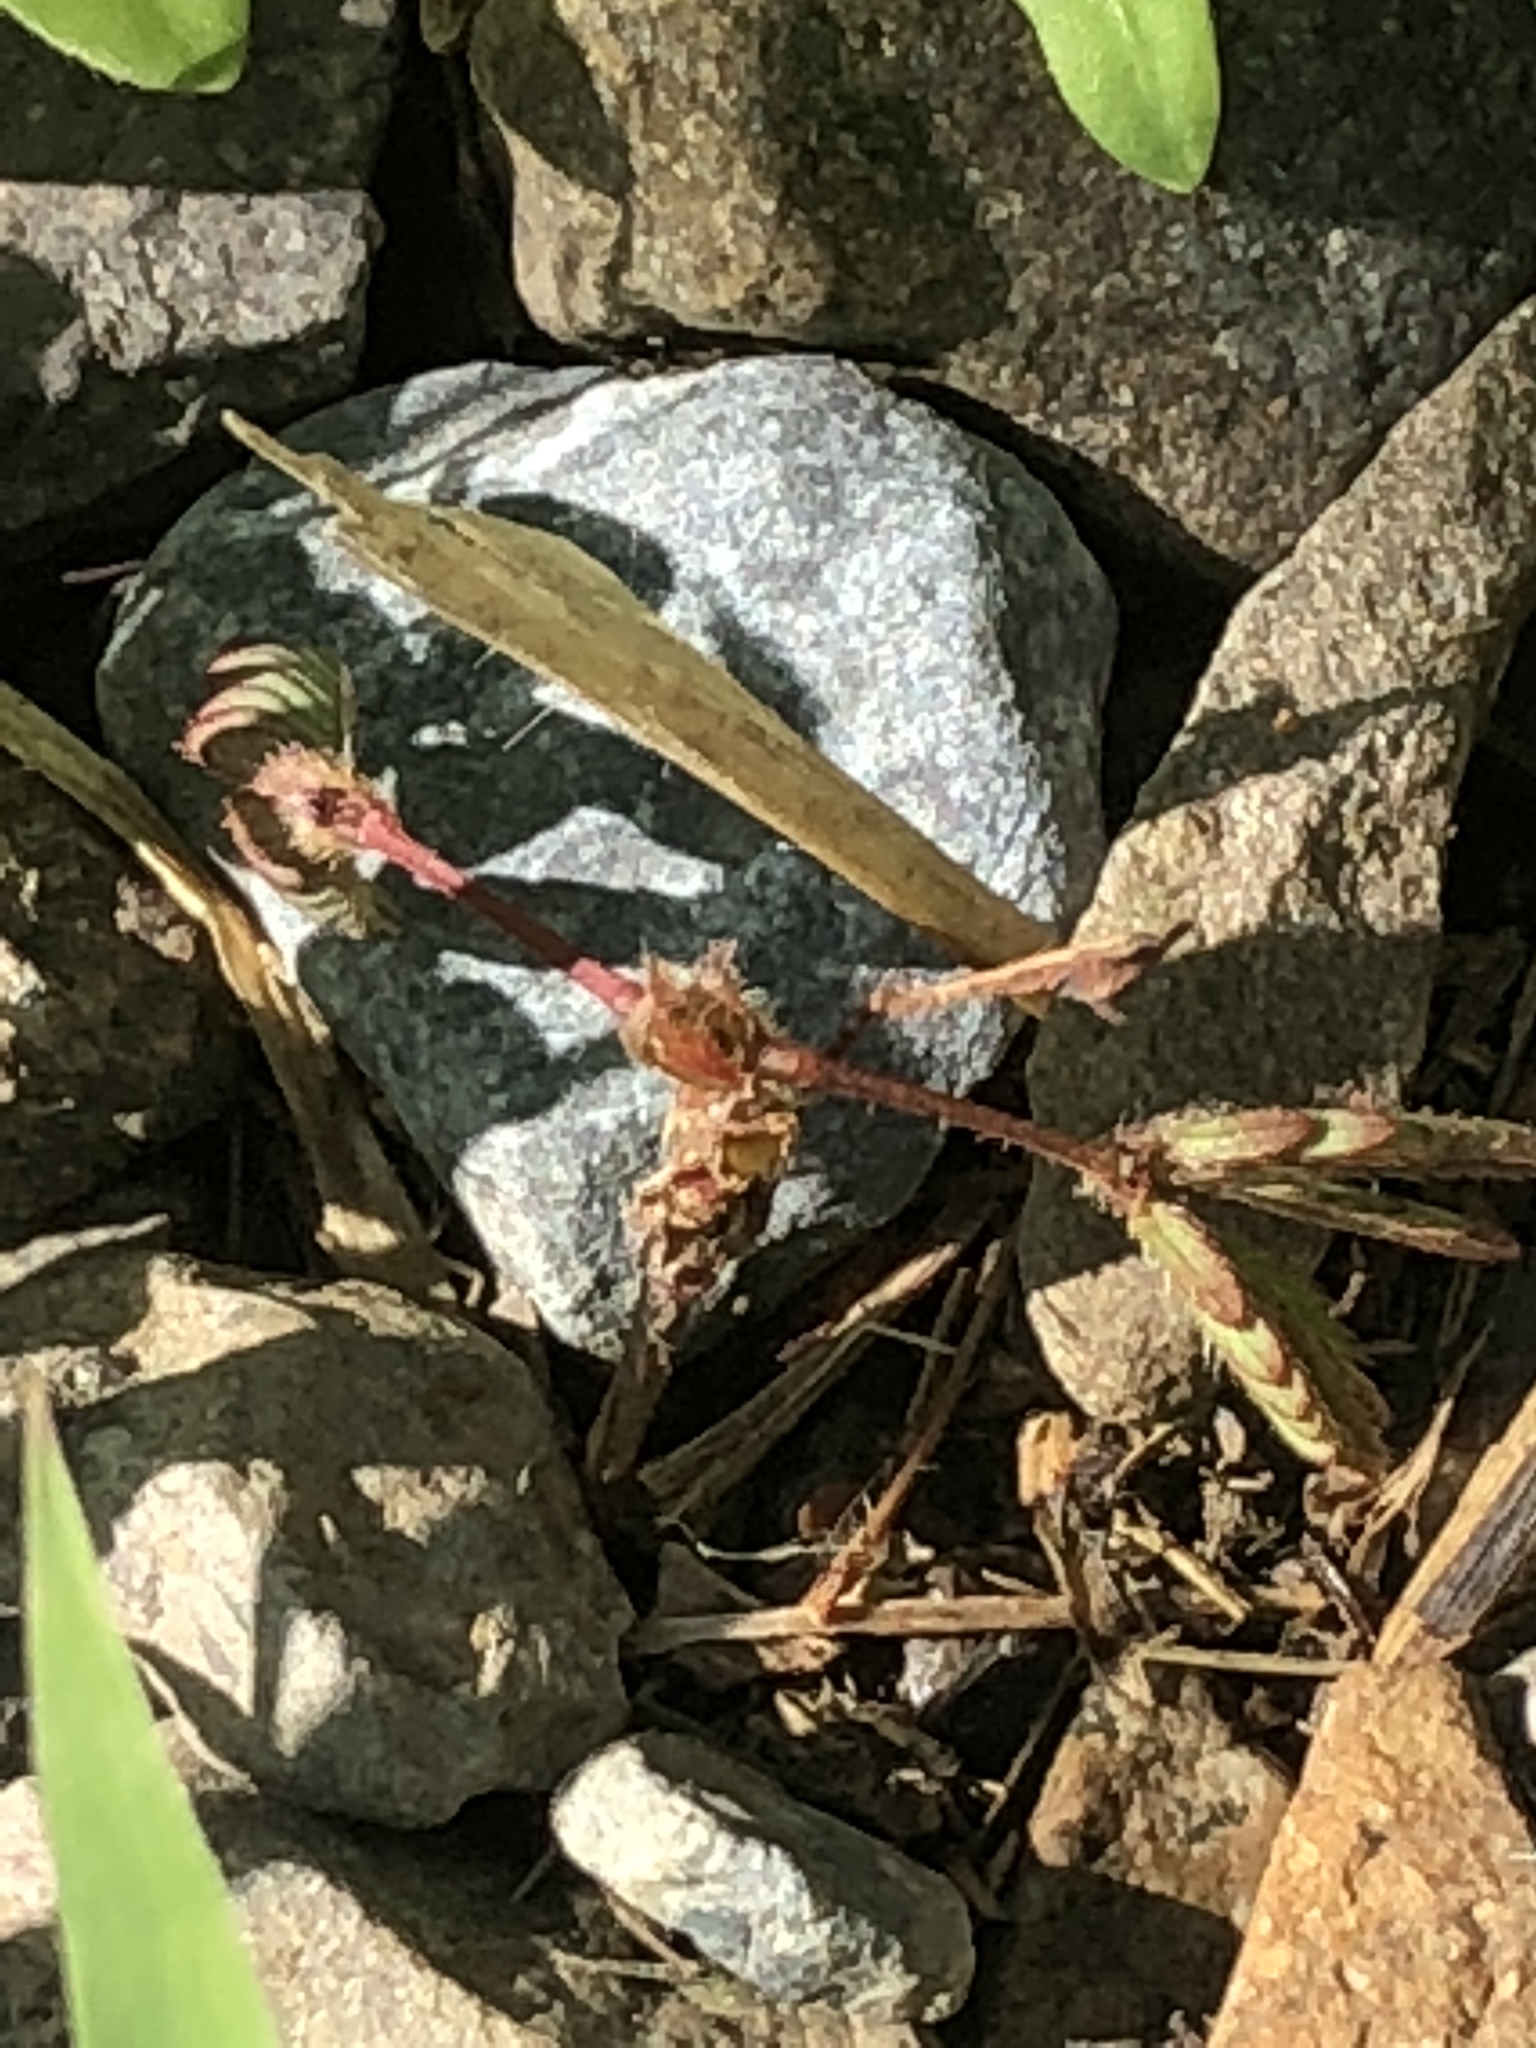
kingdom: Plantae
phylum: Tracheophyta
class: Magnoliopsida
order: Fabales
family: Fabaceae
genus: Mimosa
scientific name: Mimosa pudica
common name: Sensitive plant
